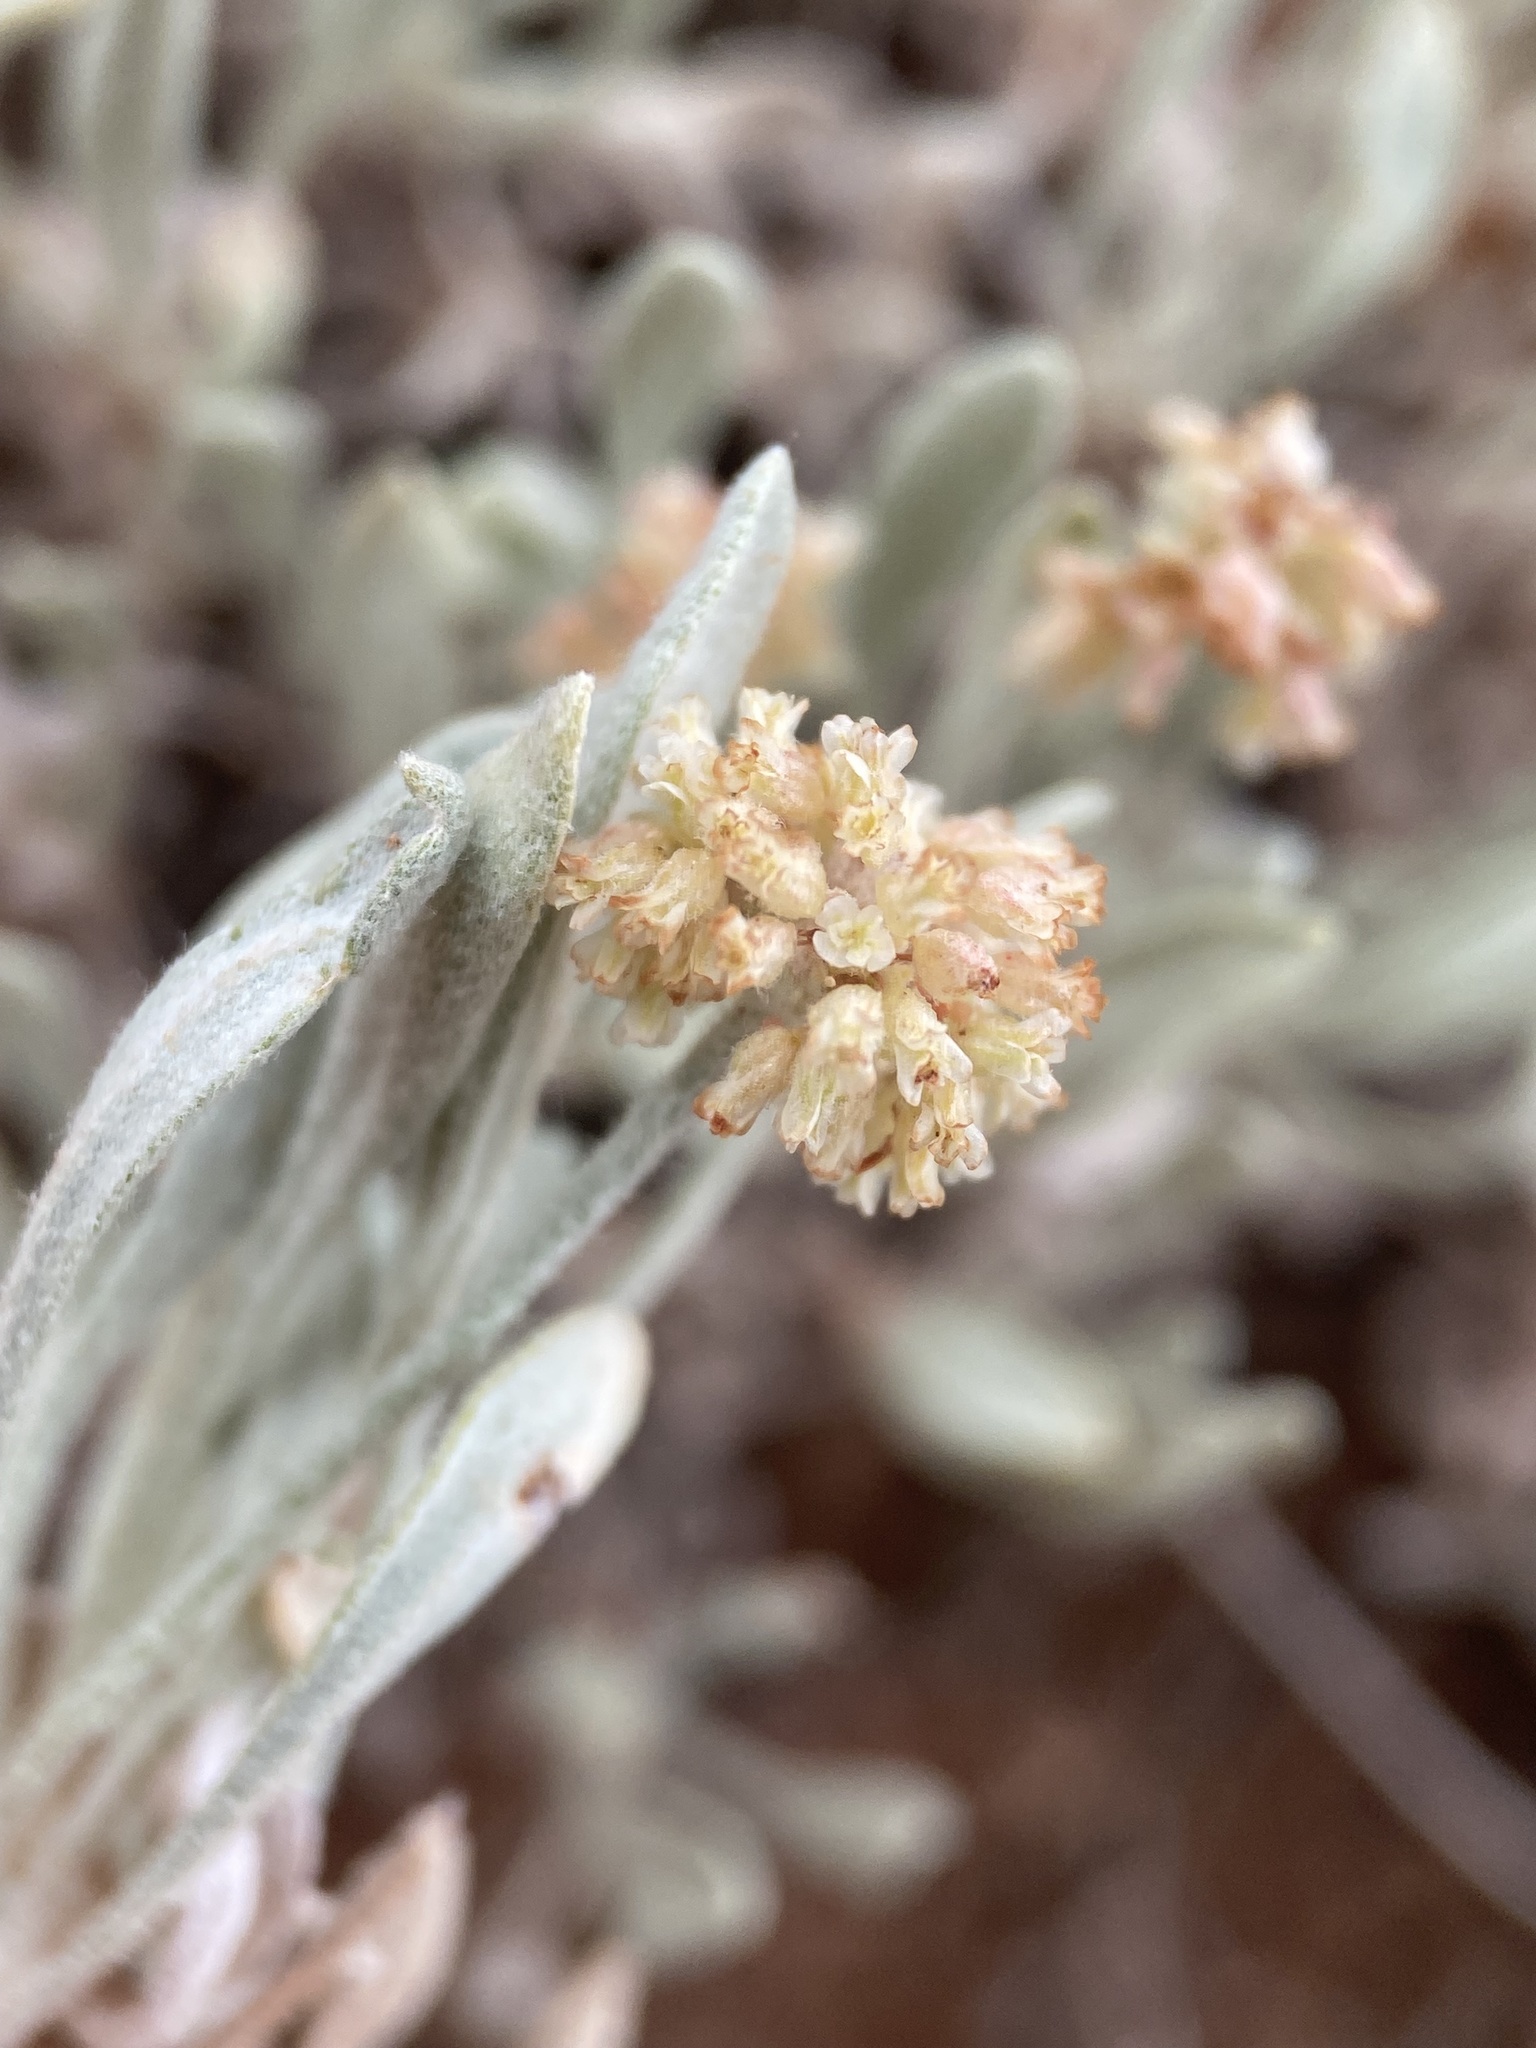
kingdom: Plantae
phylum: Tracheophyta
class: Magnoliopsida
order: Caryophyllales
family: Polygonaceae
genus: Eriogonum
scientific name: Eriogonum pauciflorum
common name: Few-flower wild buckwheat
